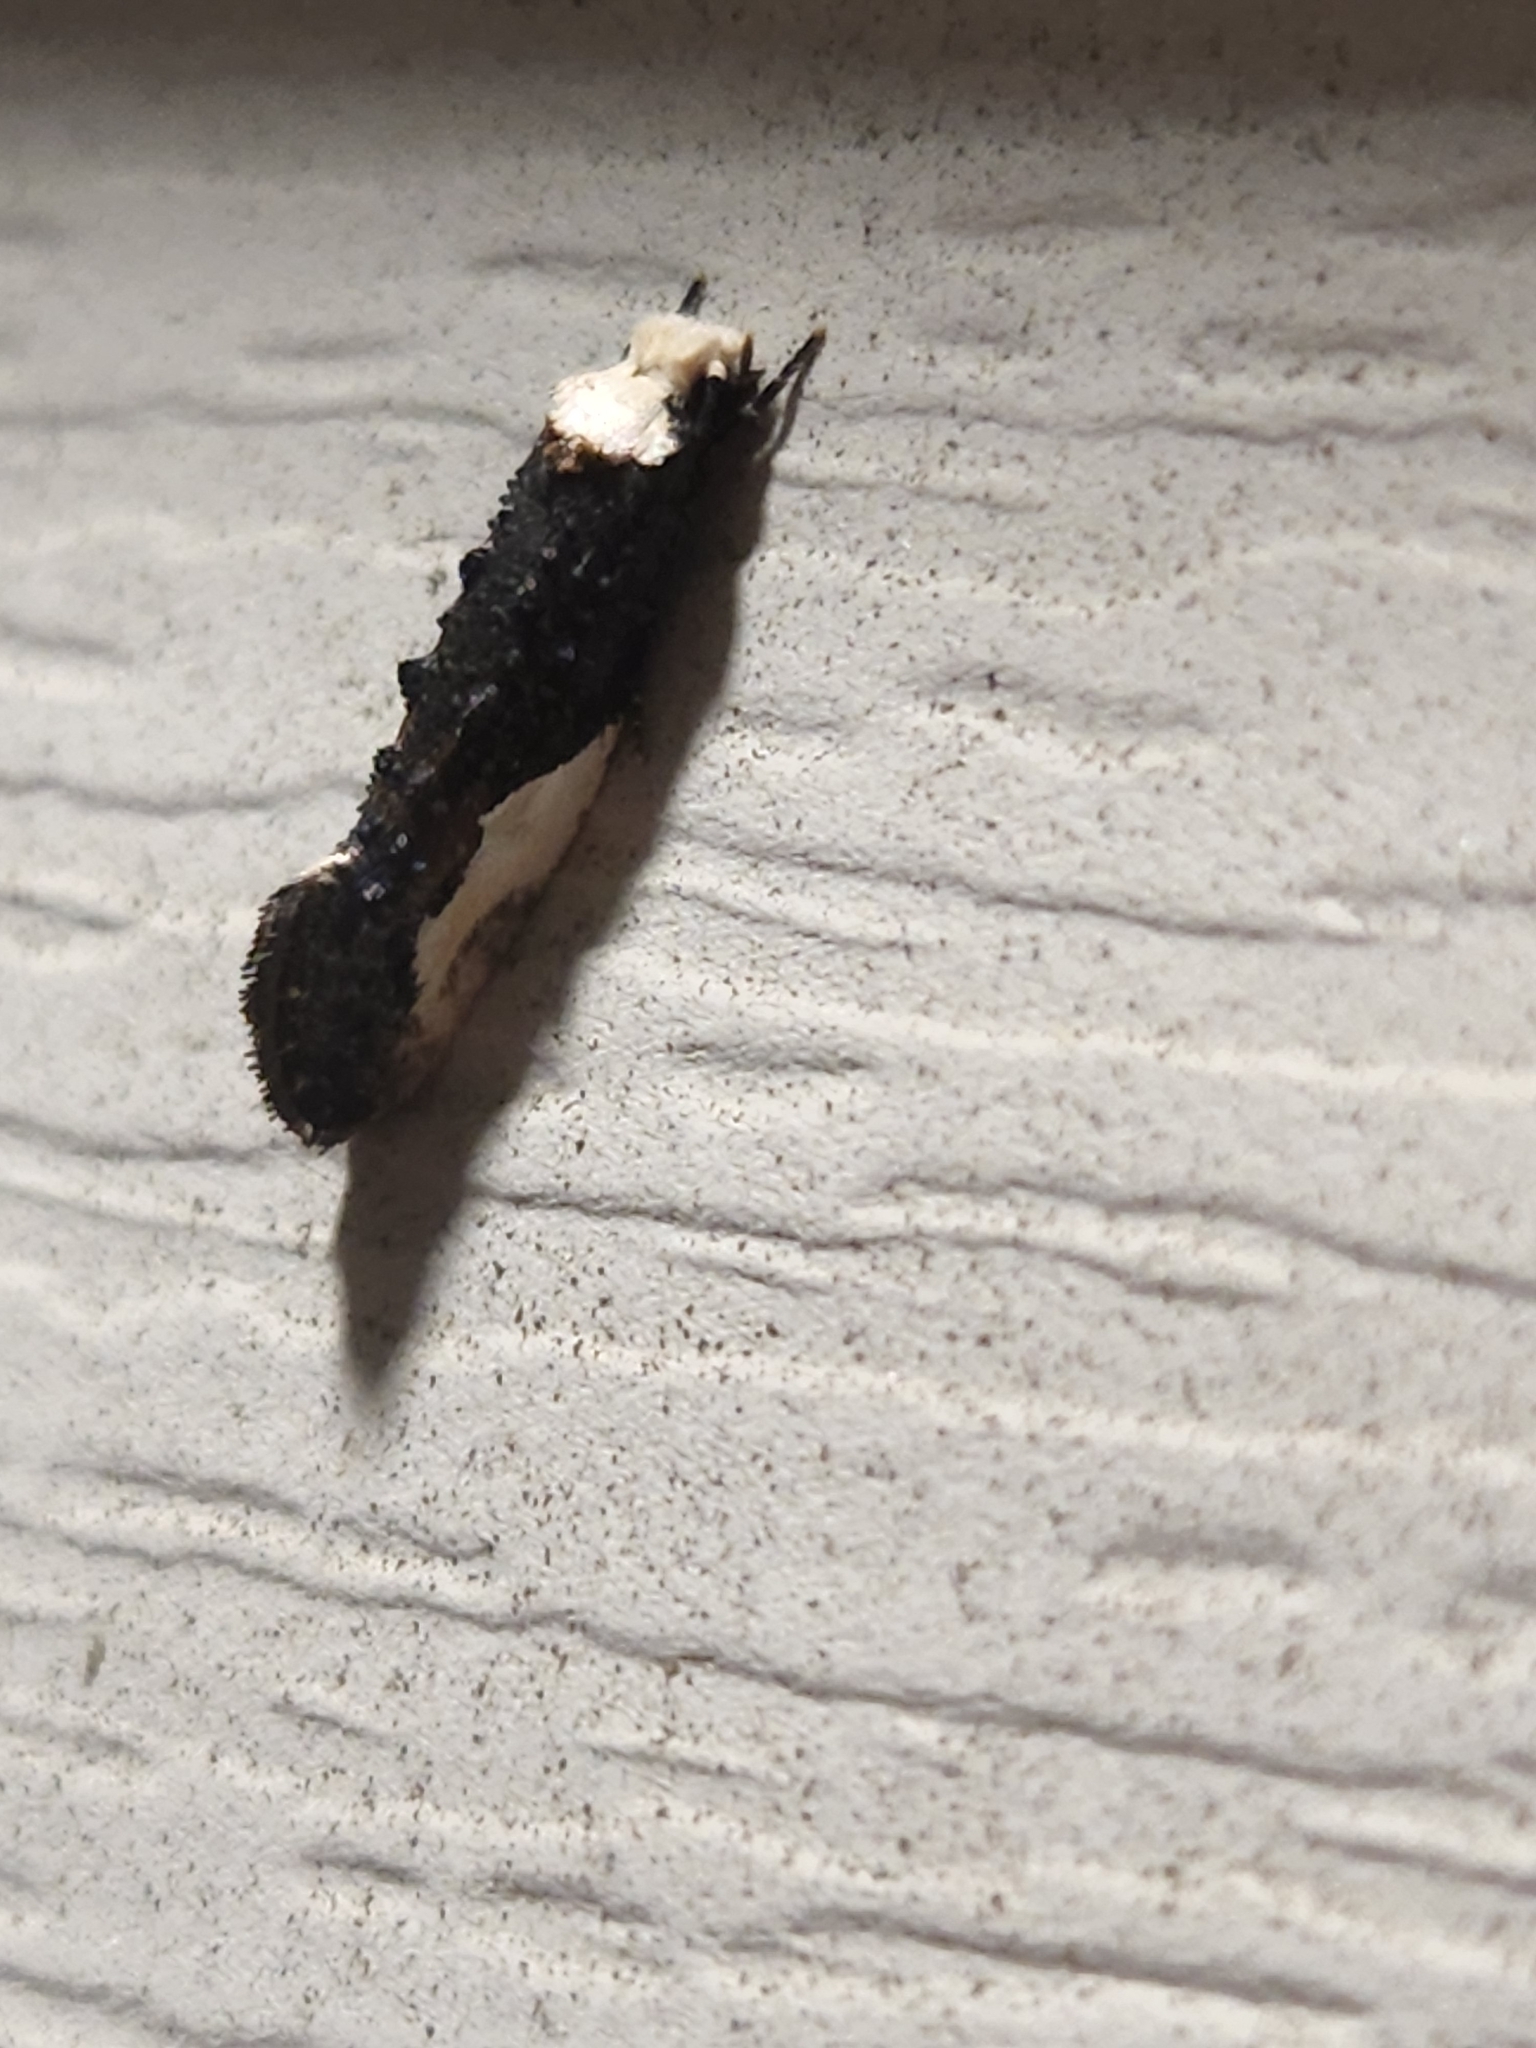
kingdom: Animalia
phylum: Arthropoda
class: Insecta
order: Lepidoptera
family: Tineidae
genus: Monopis
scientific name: Monopis longella
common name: Pavlovski's monopis moth
